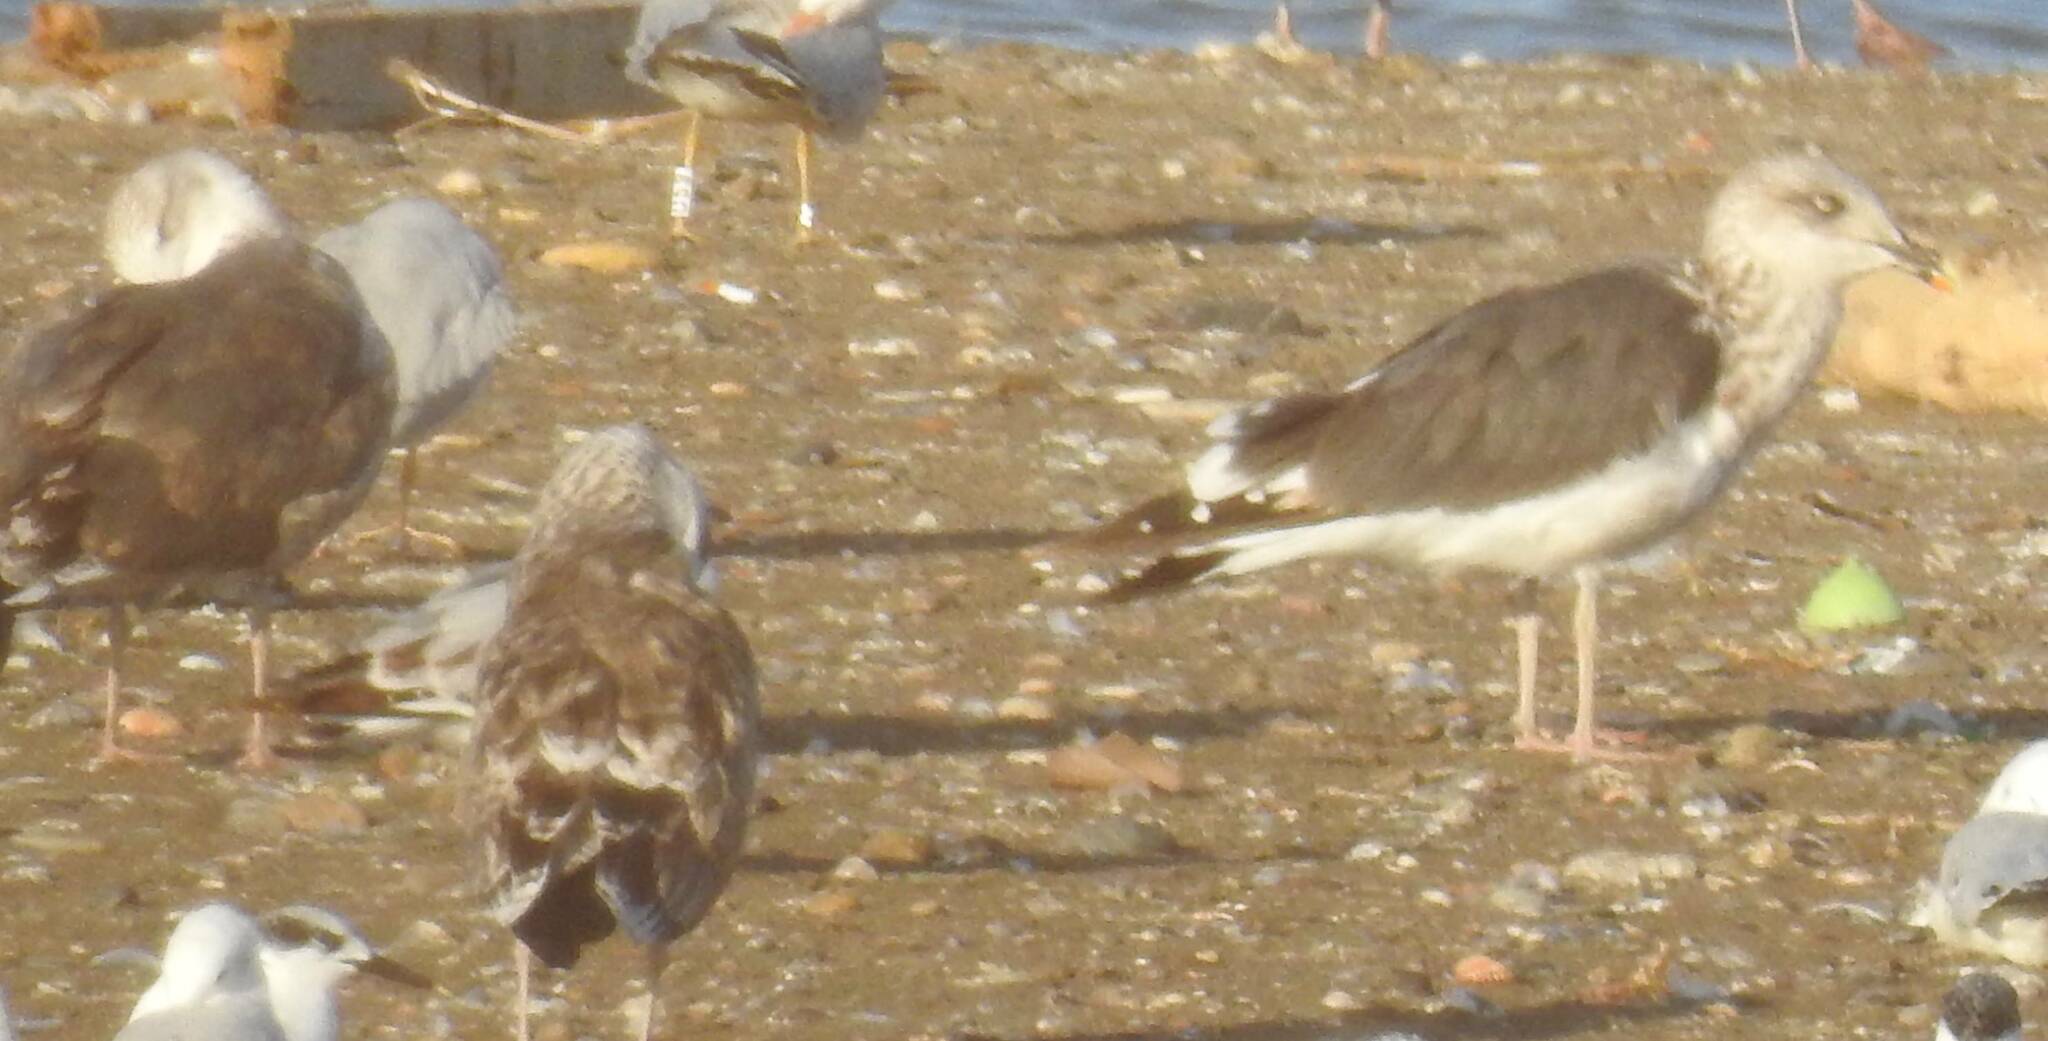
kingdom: Animalia
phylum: Chordata
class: Aves
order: Charadriiformes
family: Laridae
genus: Larus
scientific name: Larus fuscus
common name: Lesser black-backed gull
